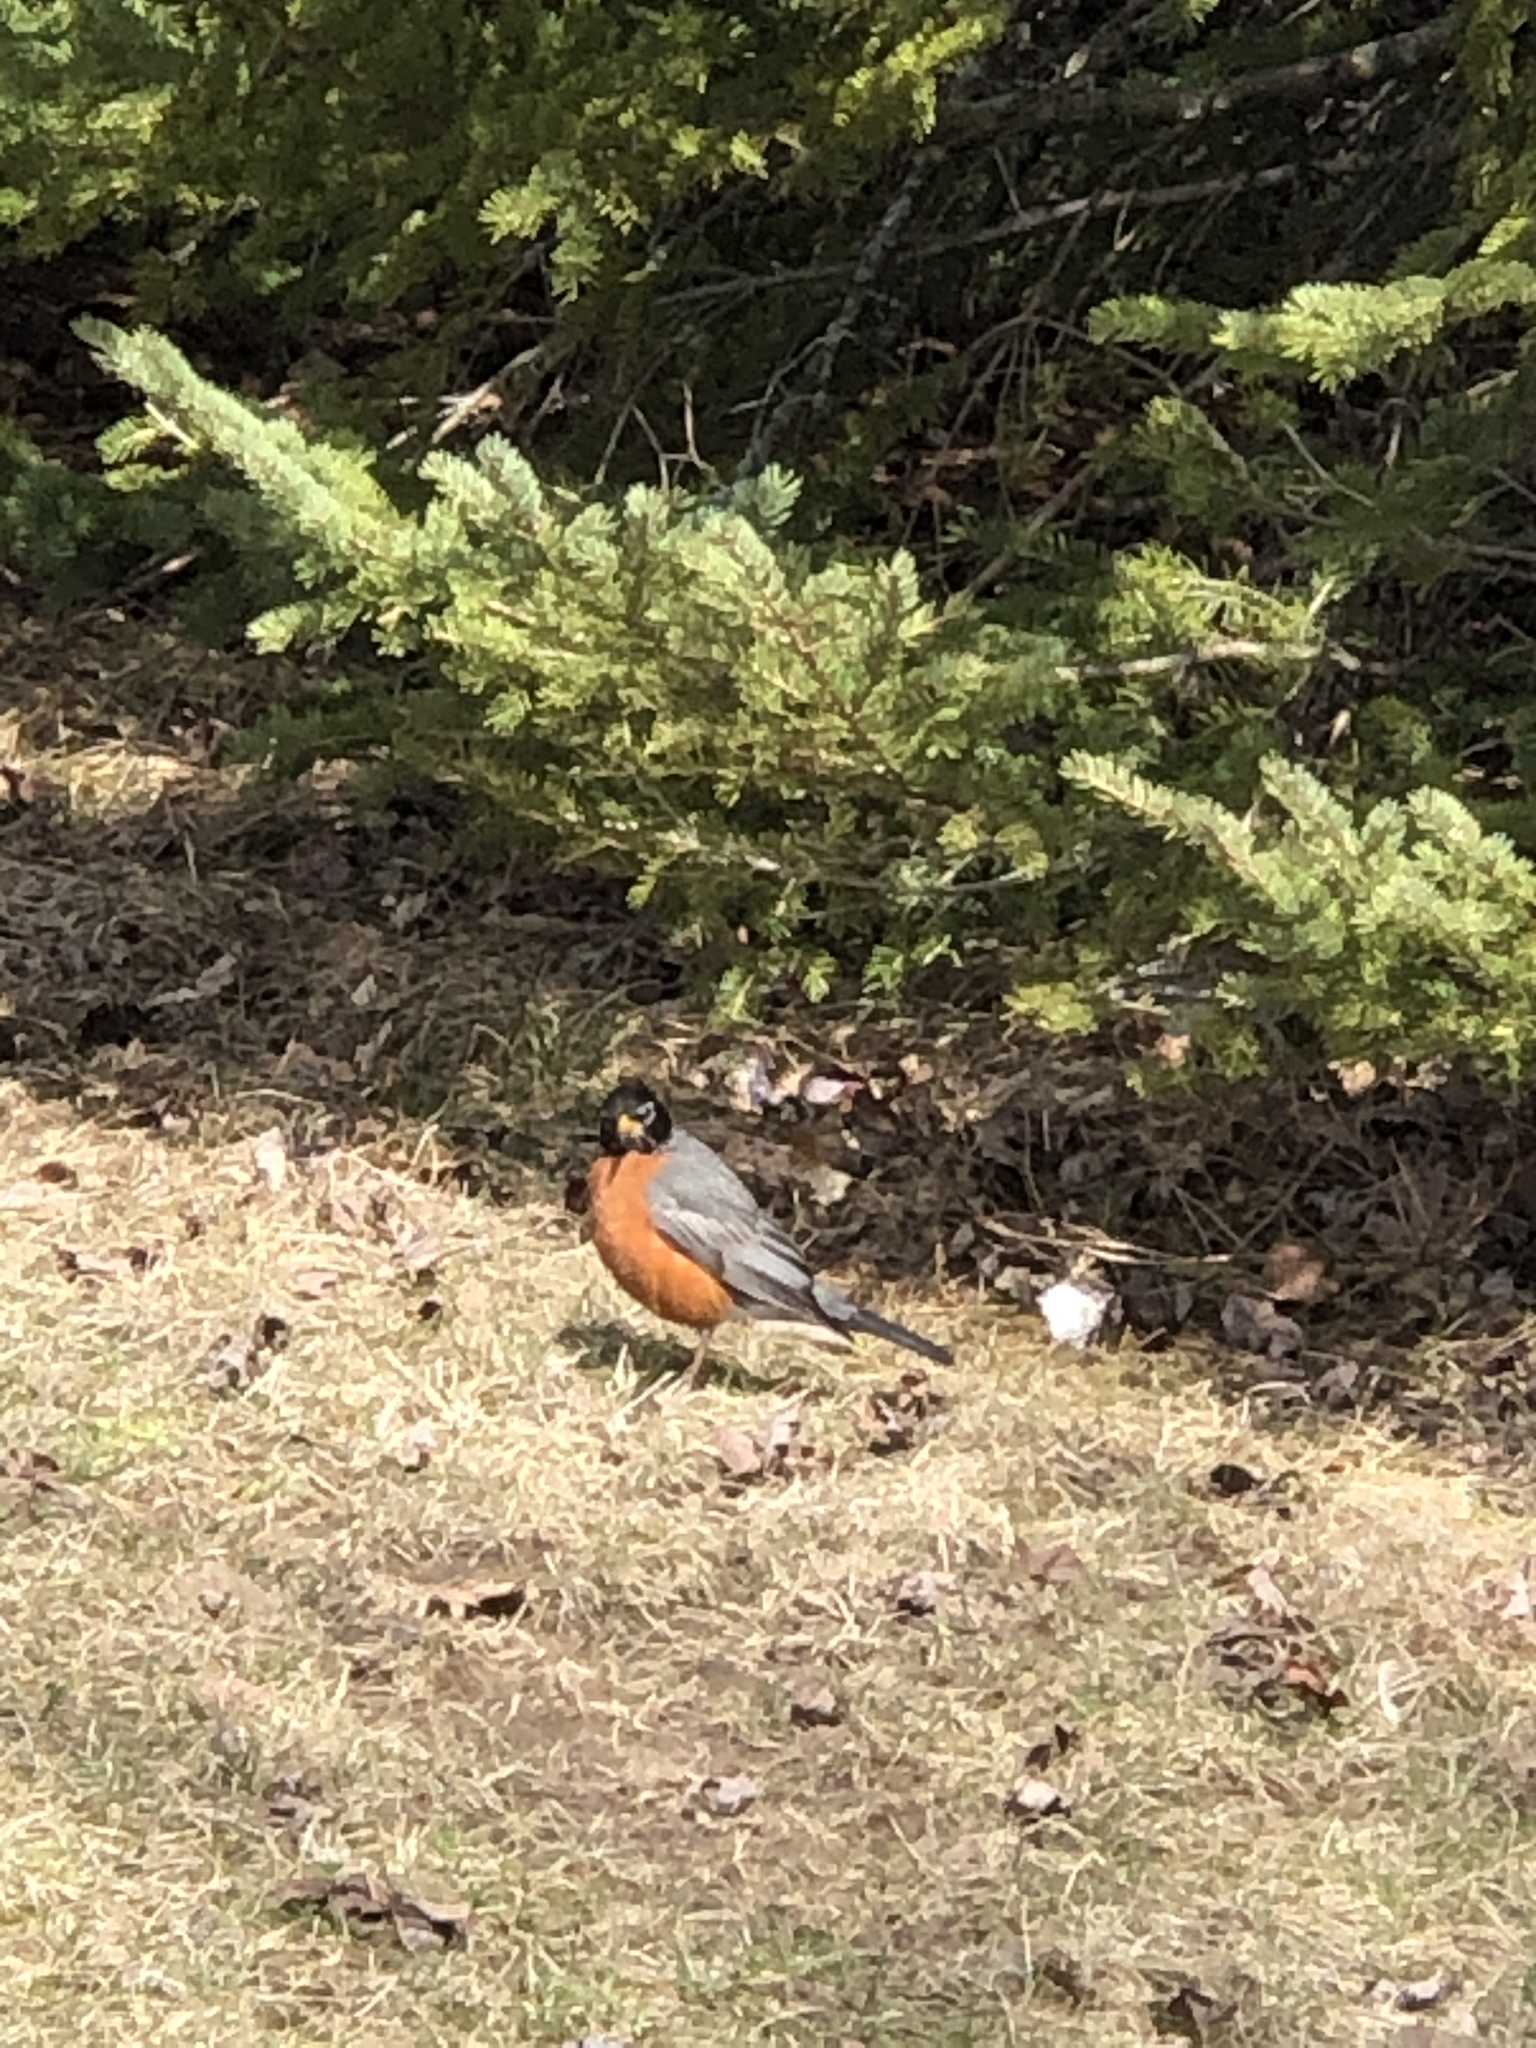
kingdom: Animalia
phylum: Chordata
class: Aves
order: Passeriformes
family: Turdidae
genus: Turdus
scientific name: Turdus migratorius
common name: American robin
